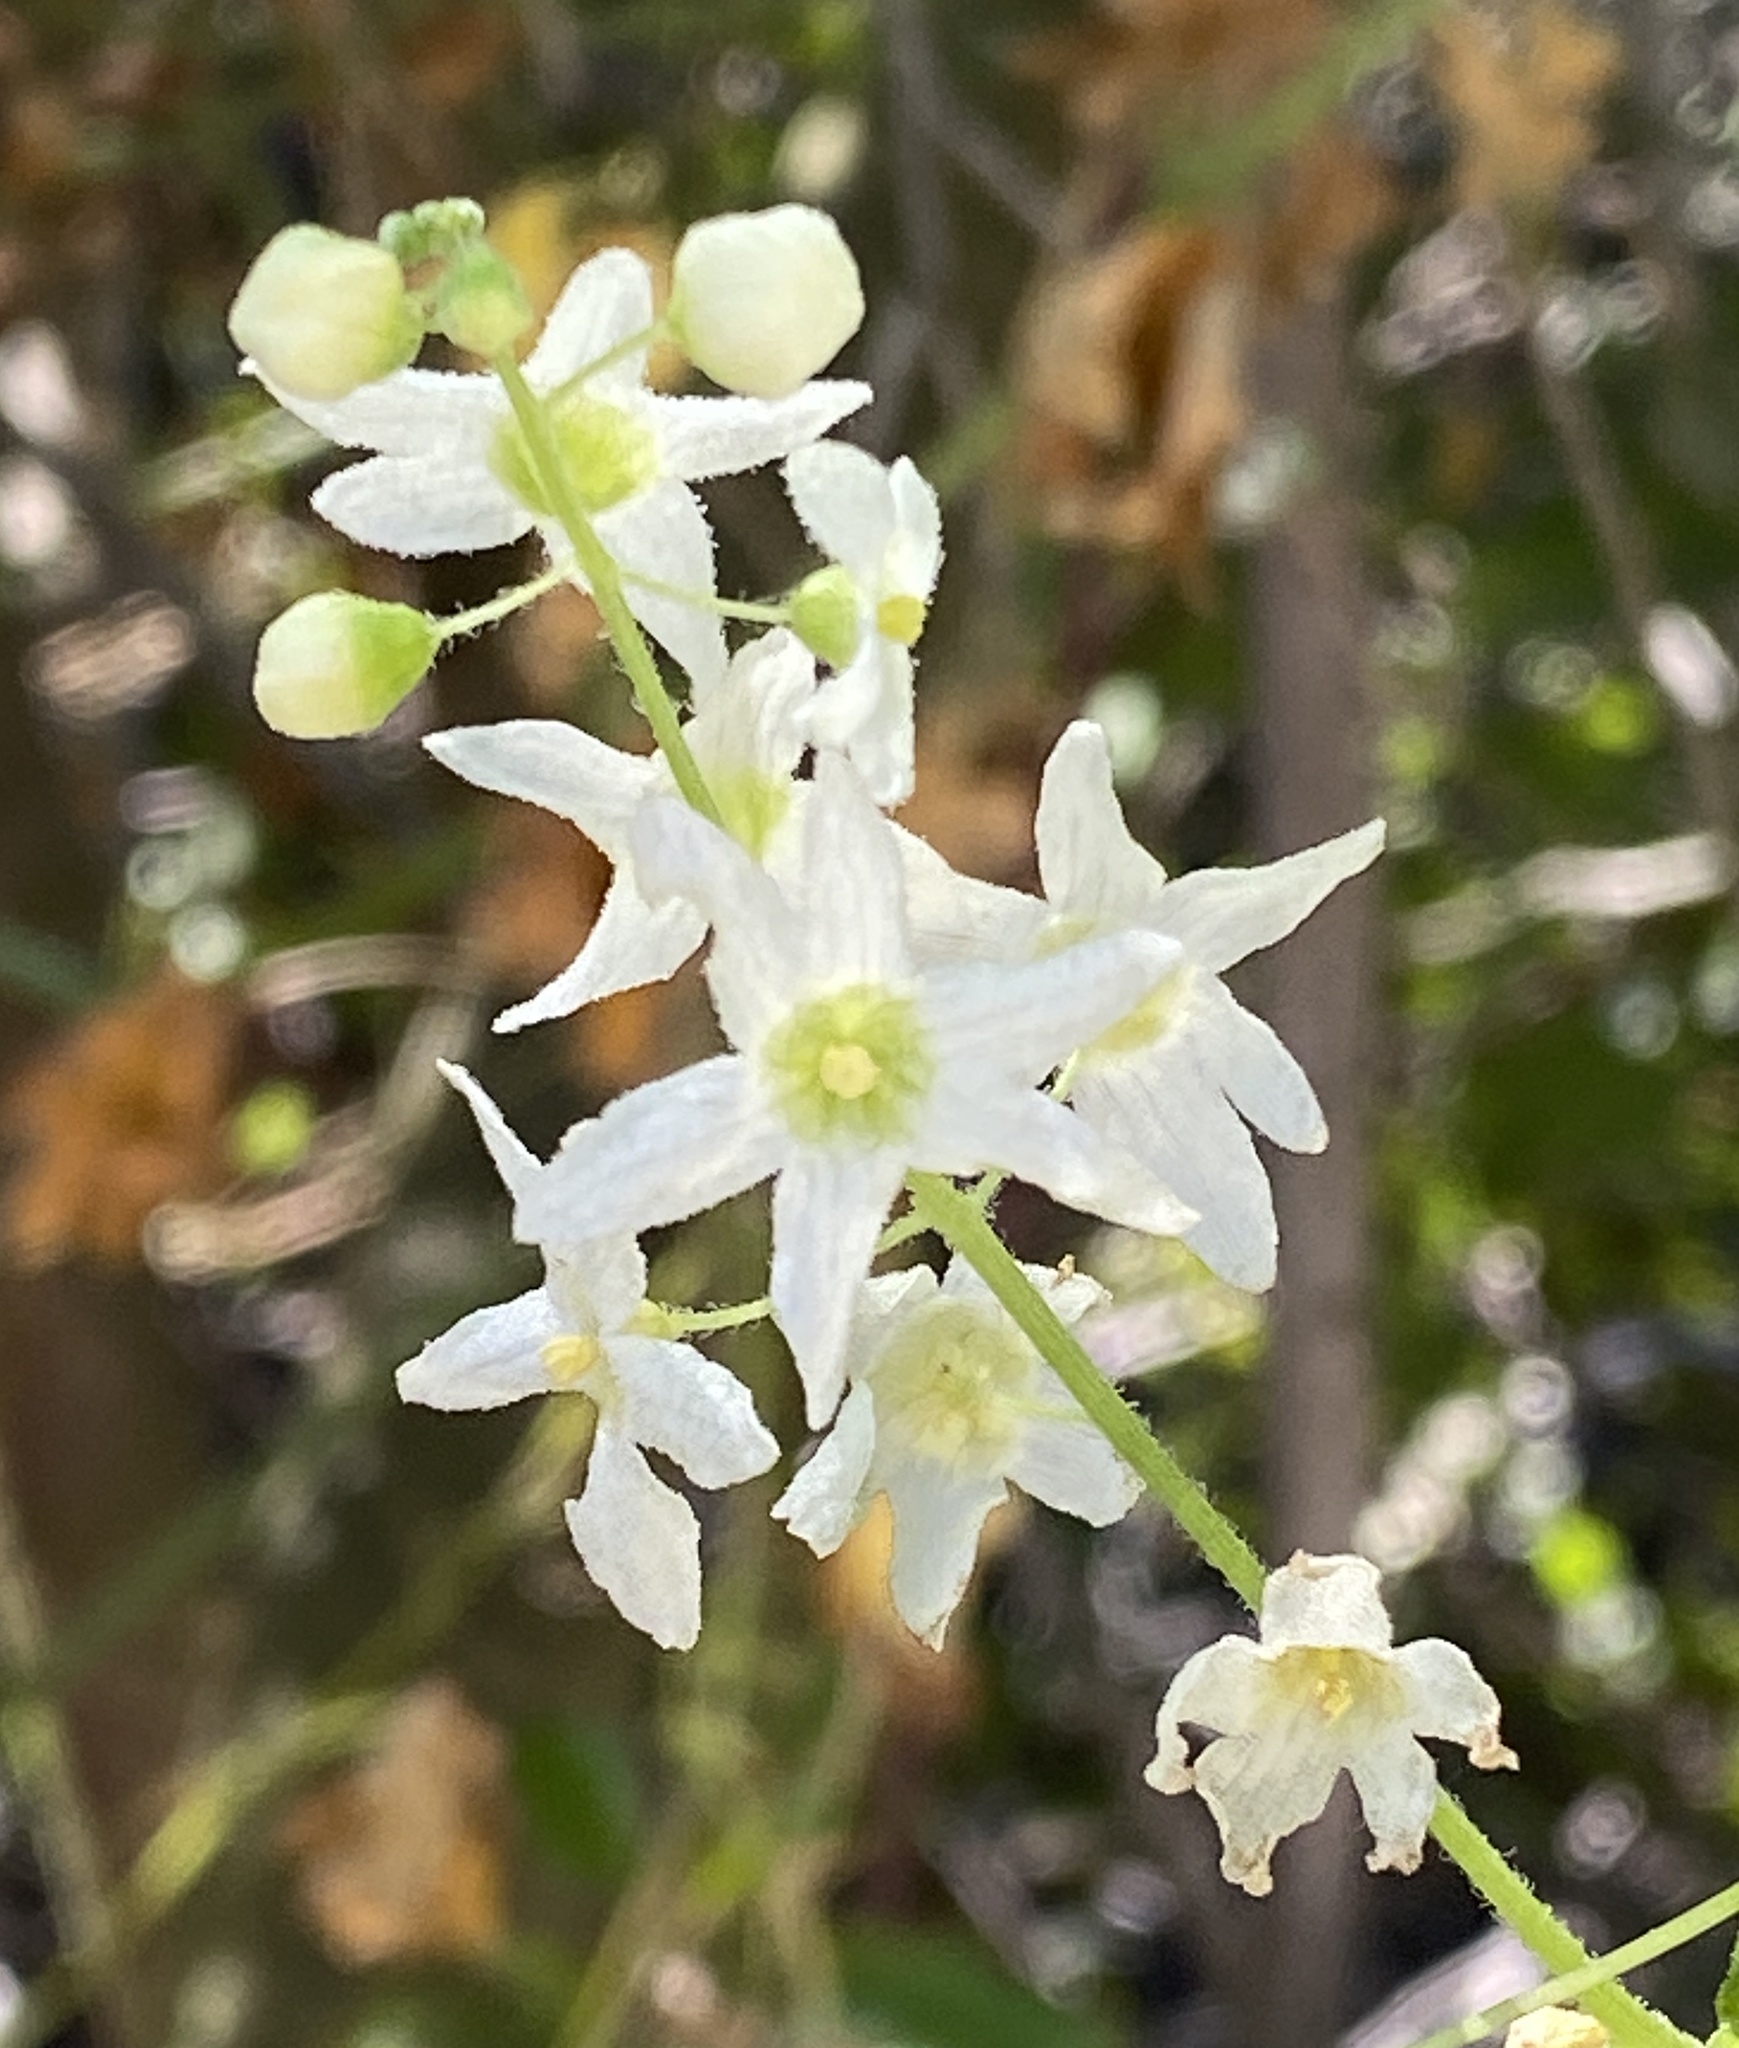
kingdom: Plantae
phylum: Tracheophyta
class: Magnoliopsida
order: Cucurbitales
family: Cucurbitaceae
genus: Marah
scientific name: Marah macrocarpa
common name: Cucamonga manroot
